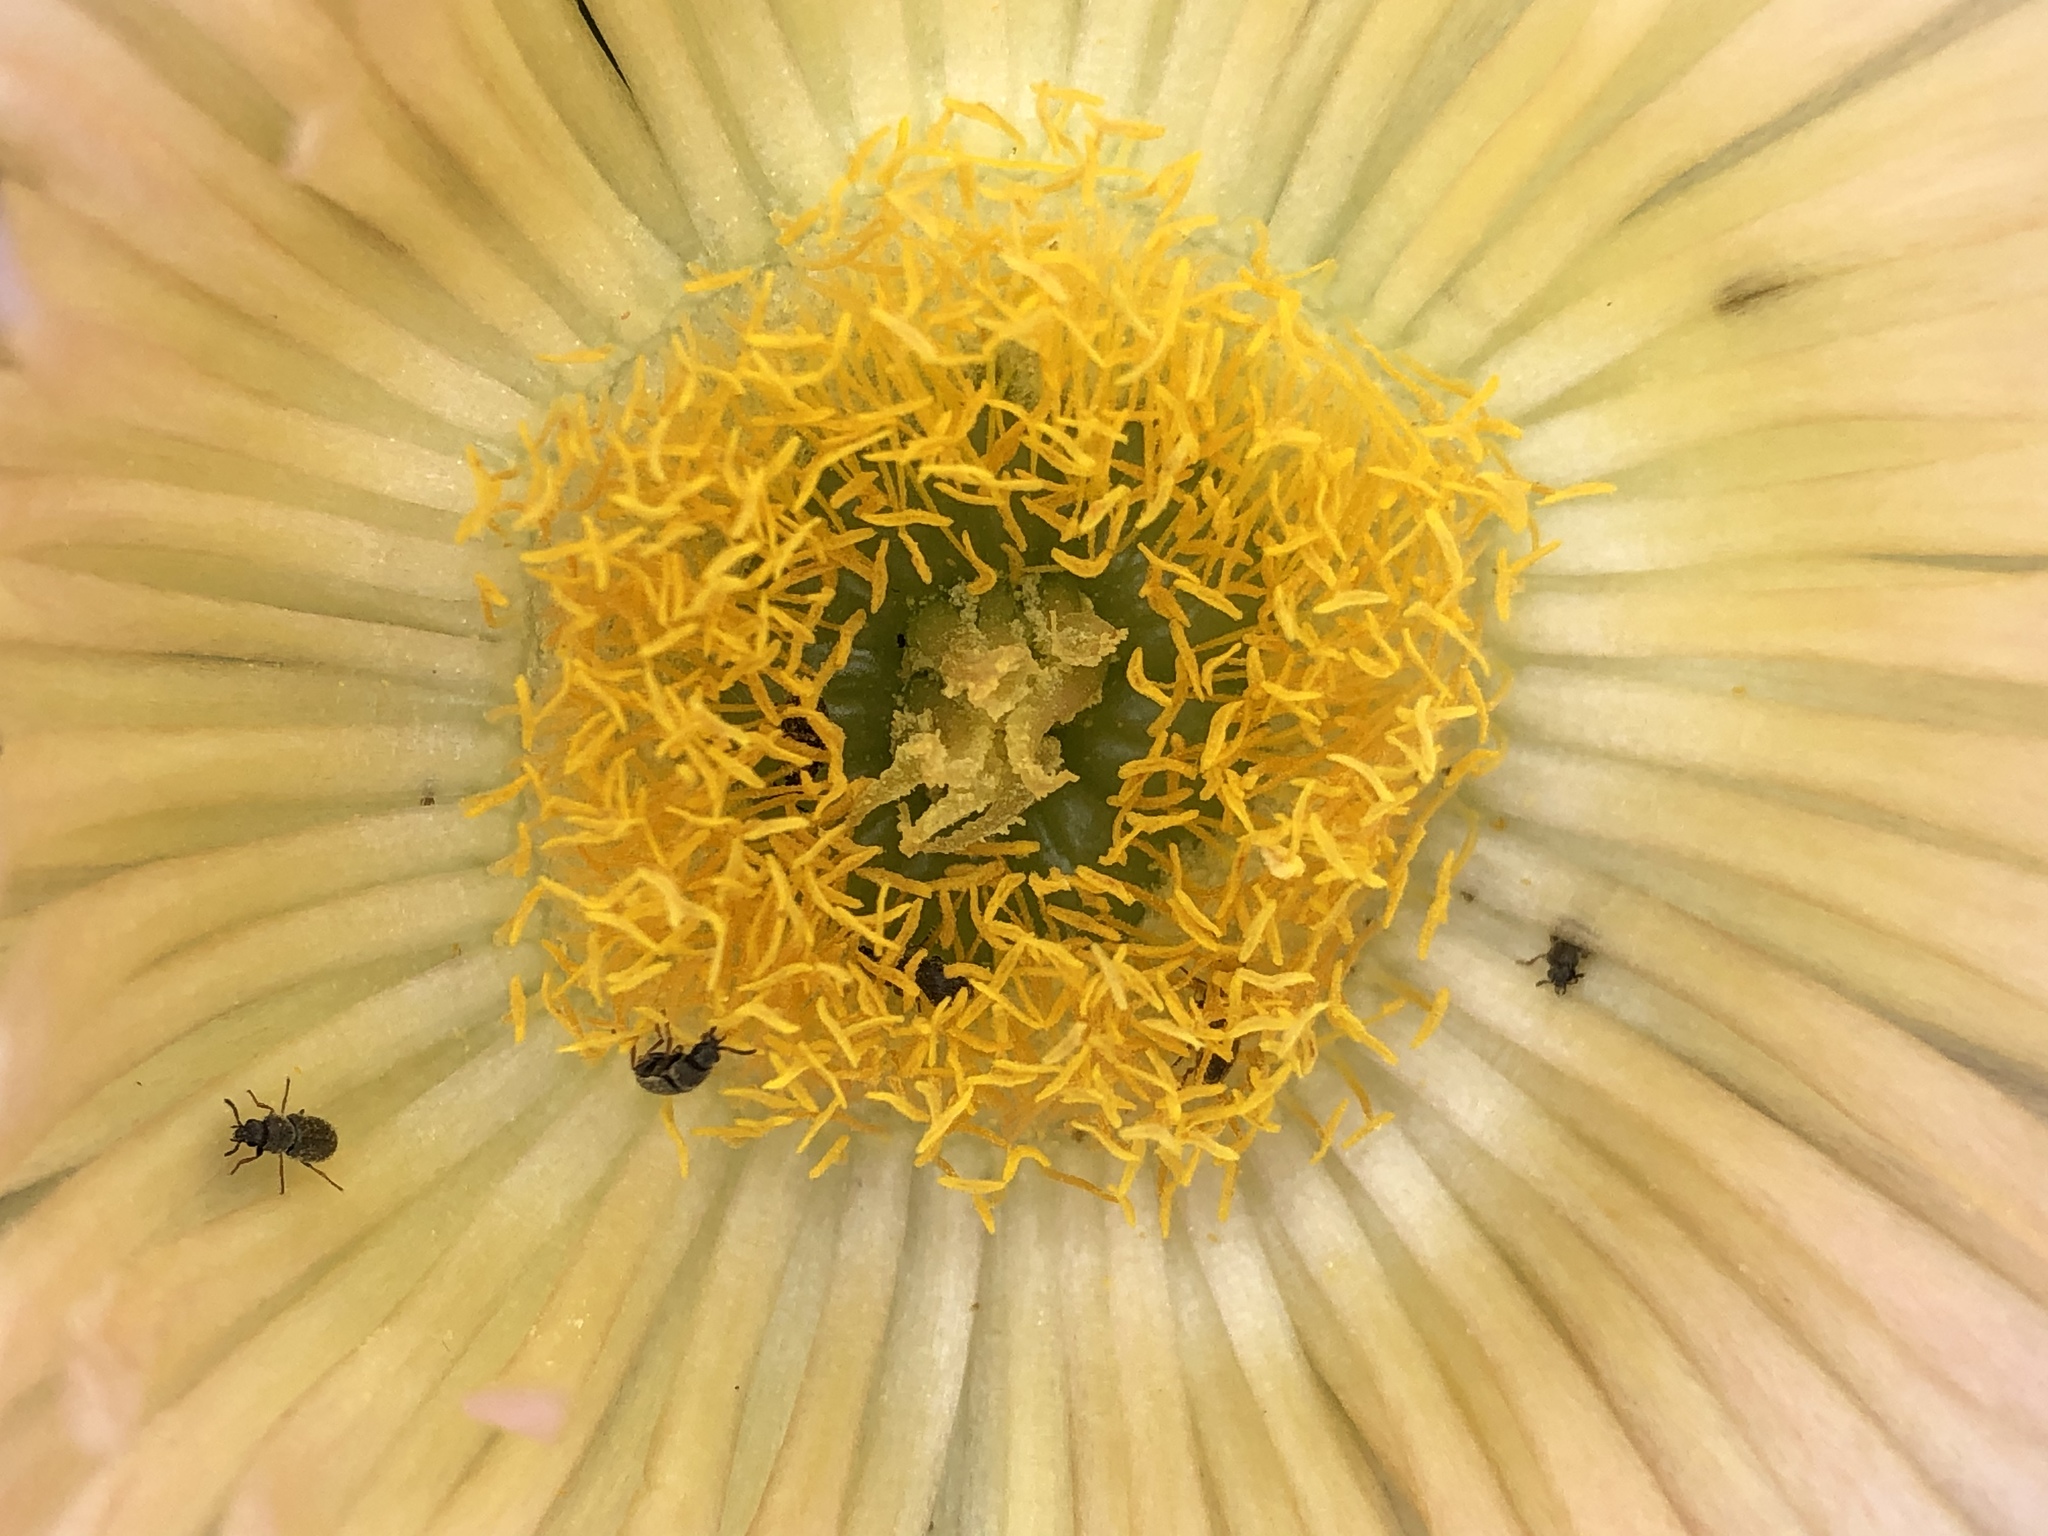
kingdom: Plantae
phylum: Tracheophyta
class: Magnoliopsida
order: Caryophyllales
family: Aizoaceae
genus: Carpobrotus
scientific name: Carpobrotus edulis
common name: Hottentot-fig
